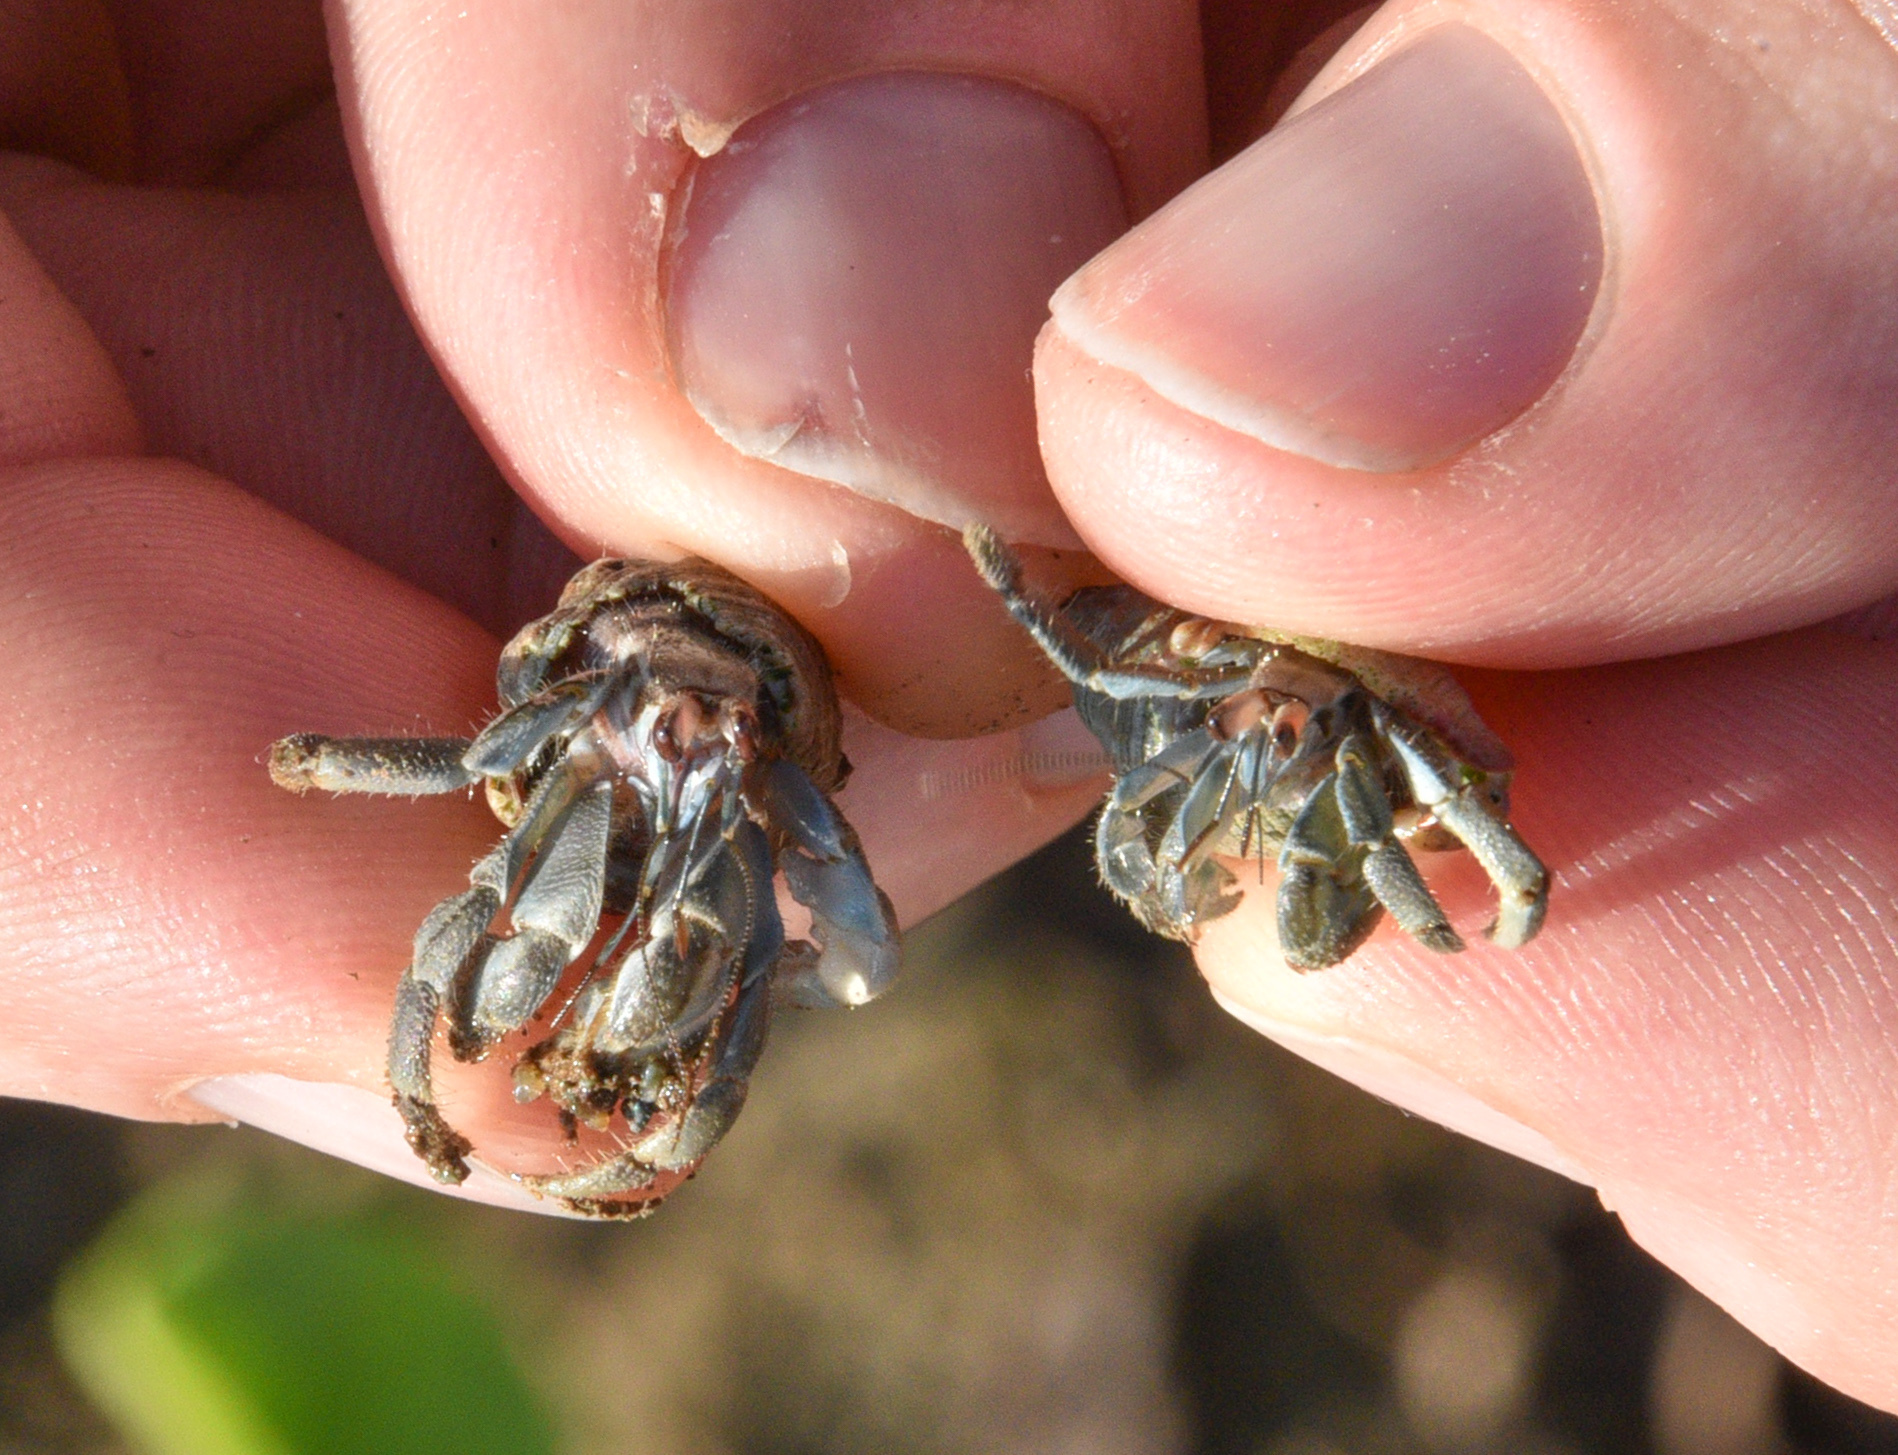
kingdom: Animalia
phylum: Arthropoda
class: Malacostraca
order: Decapoda
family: Coenobitidae
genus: Coenobita
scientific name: Coenobita compressus
